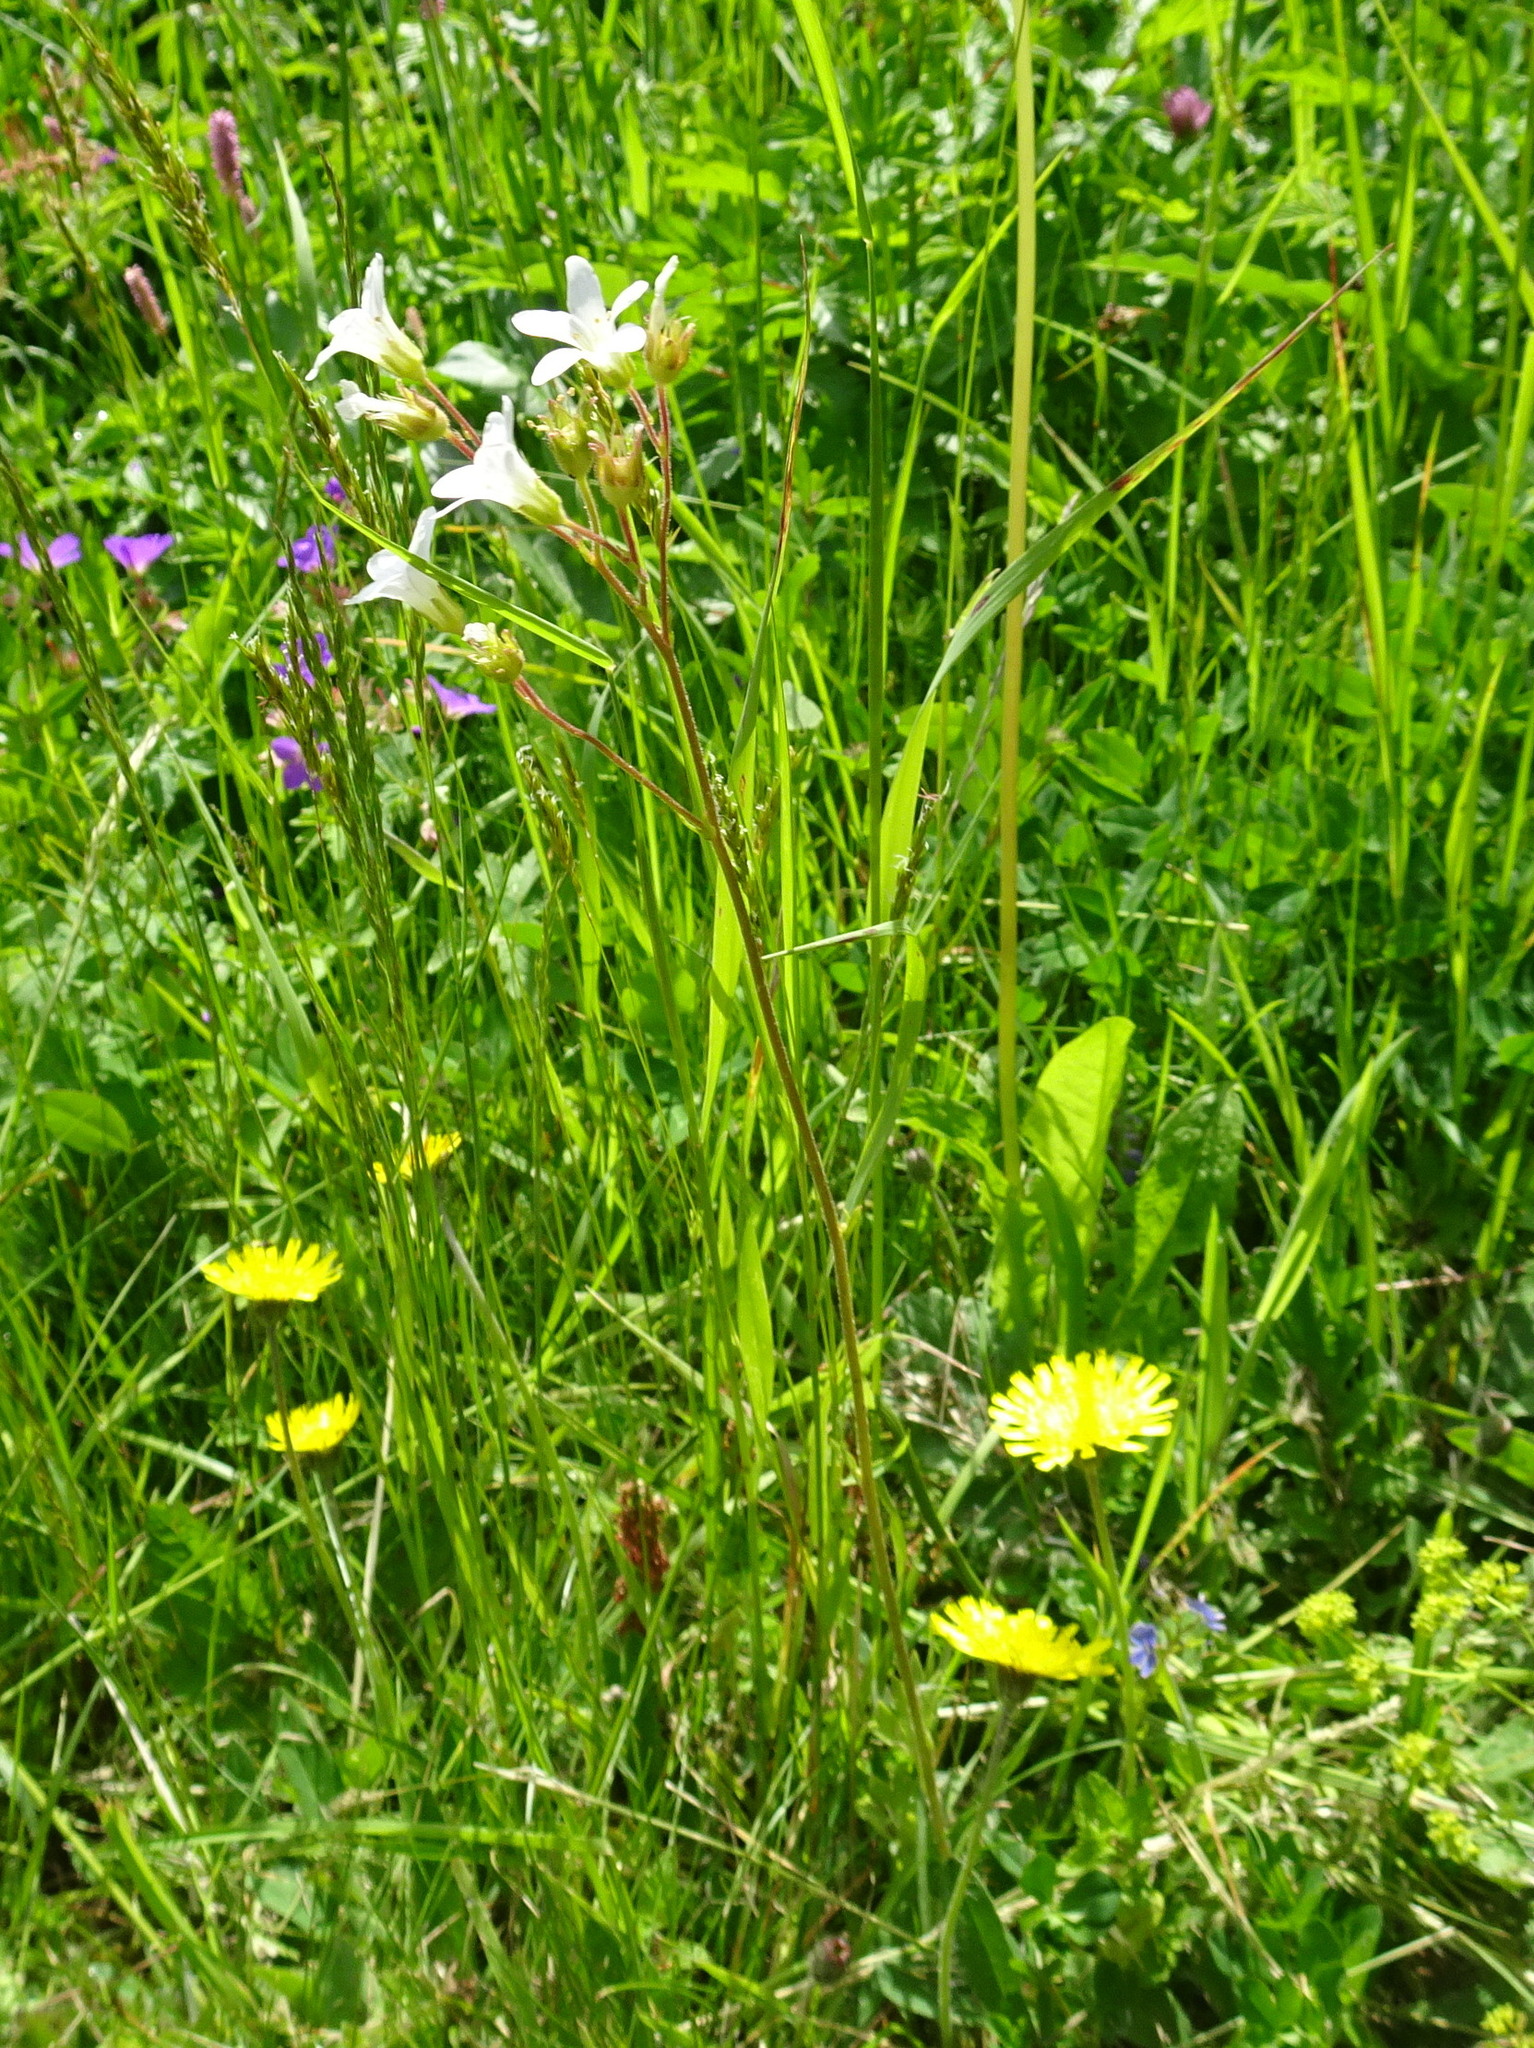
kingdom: Plantae
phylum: Tracheophyta
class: Magnoliopsida
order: Saxifragales
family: Saxifragaceae
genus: Saxifraga
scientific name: Saxifraga granulata
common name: Meadow saxifrage
